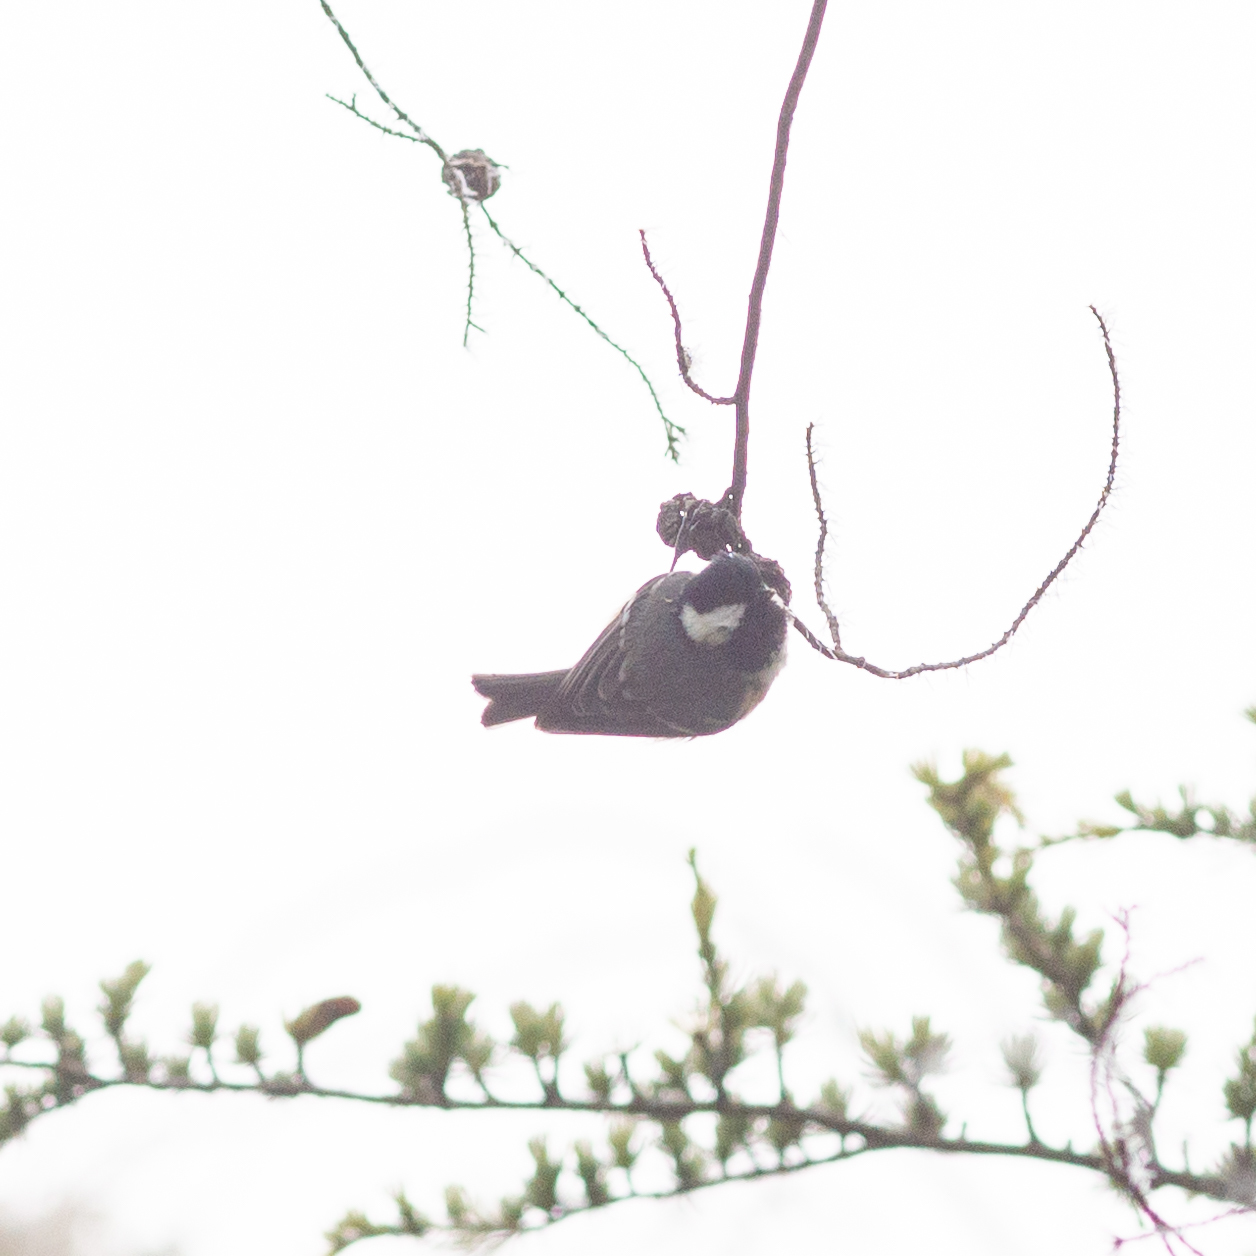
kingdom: Animalia
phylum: Chordata
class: Aves
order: Passeriformes
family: Paridae
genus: Periparus
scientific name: Periparus ater
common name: Coal tit
